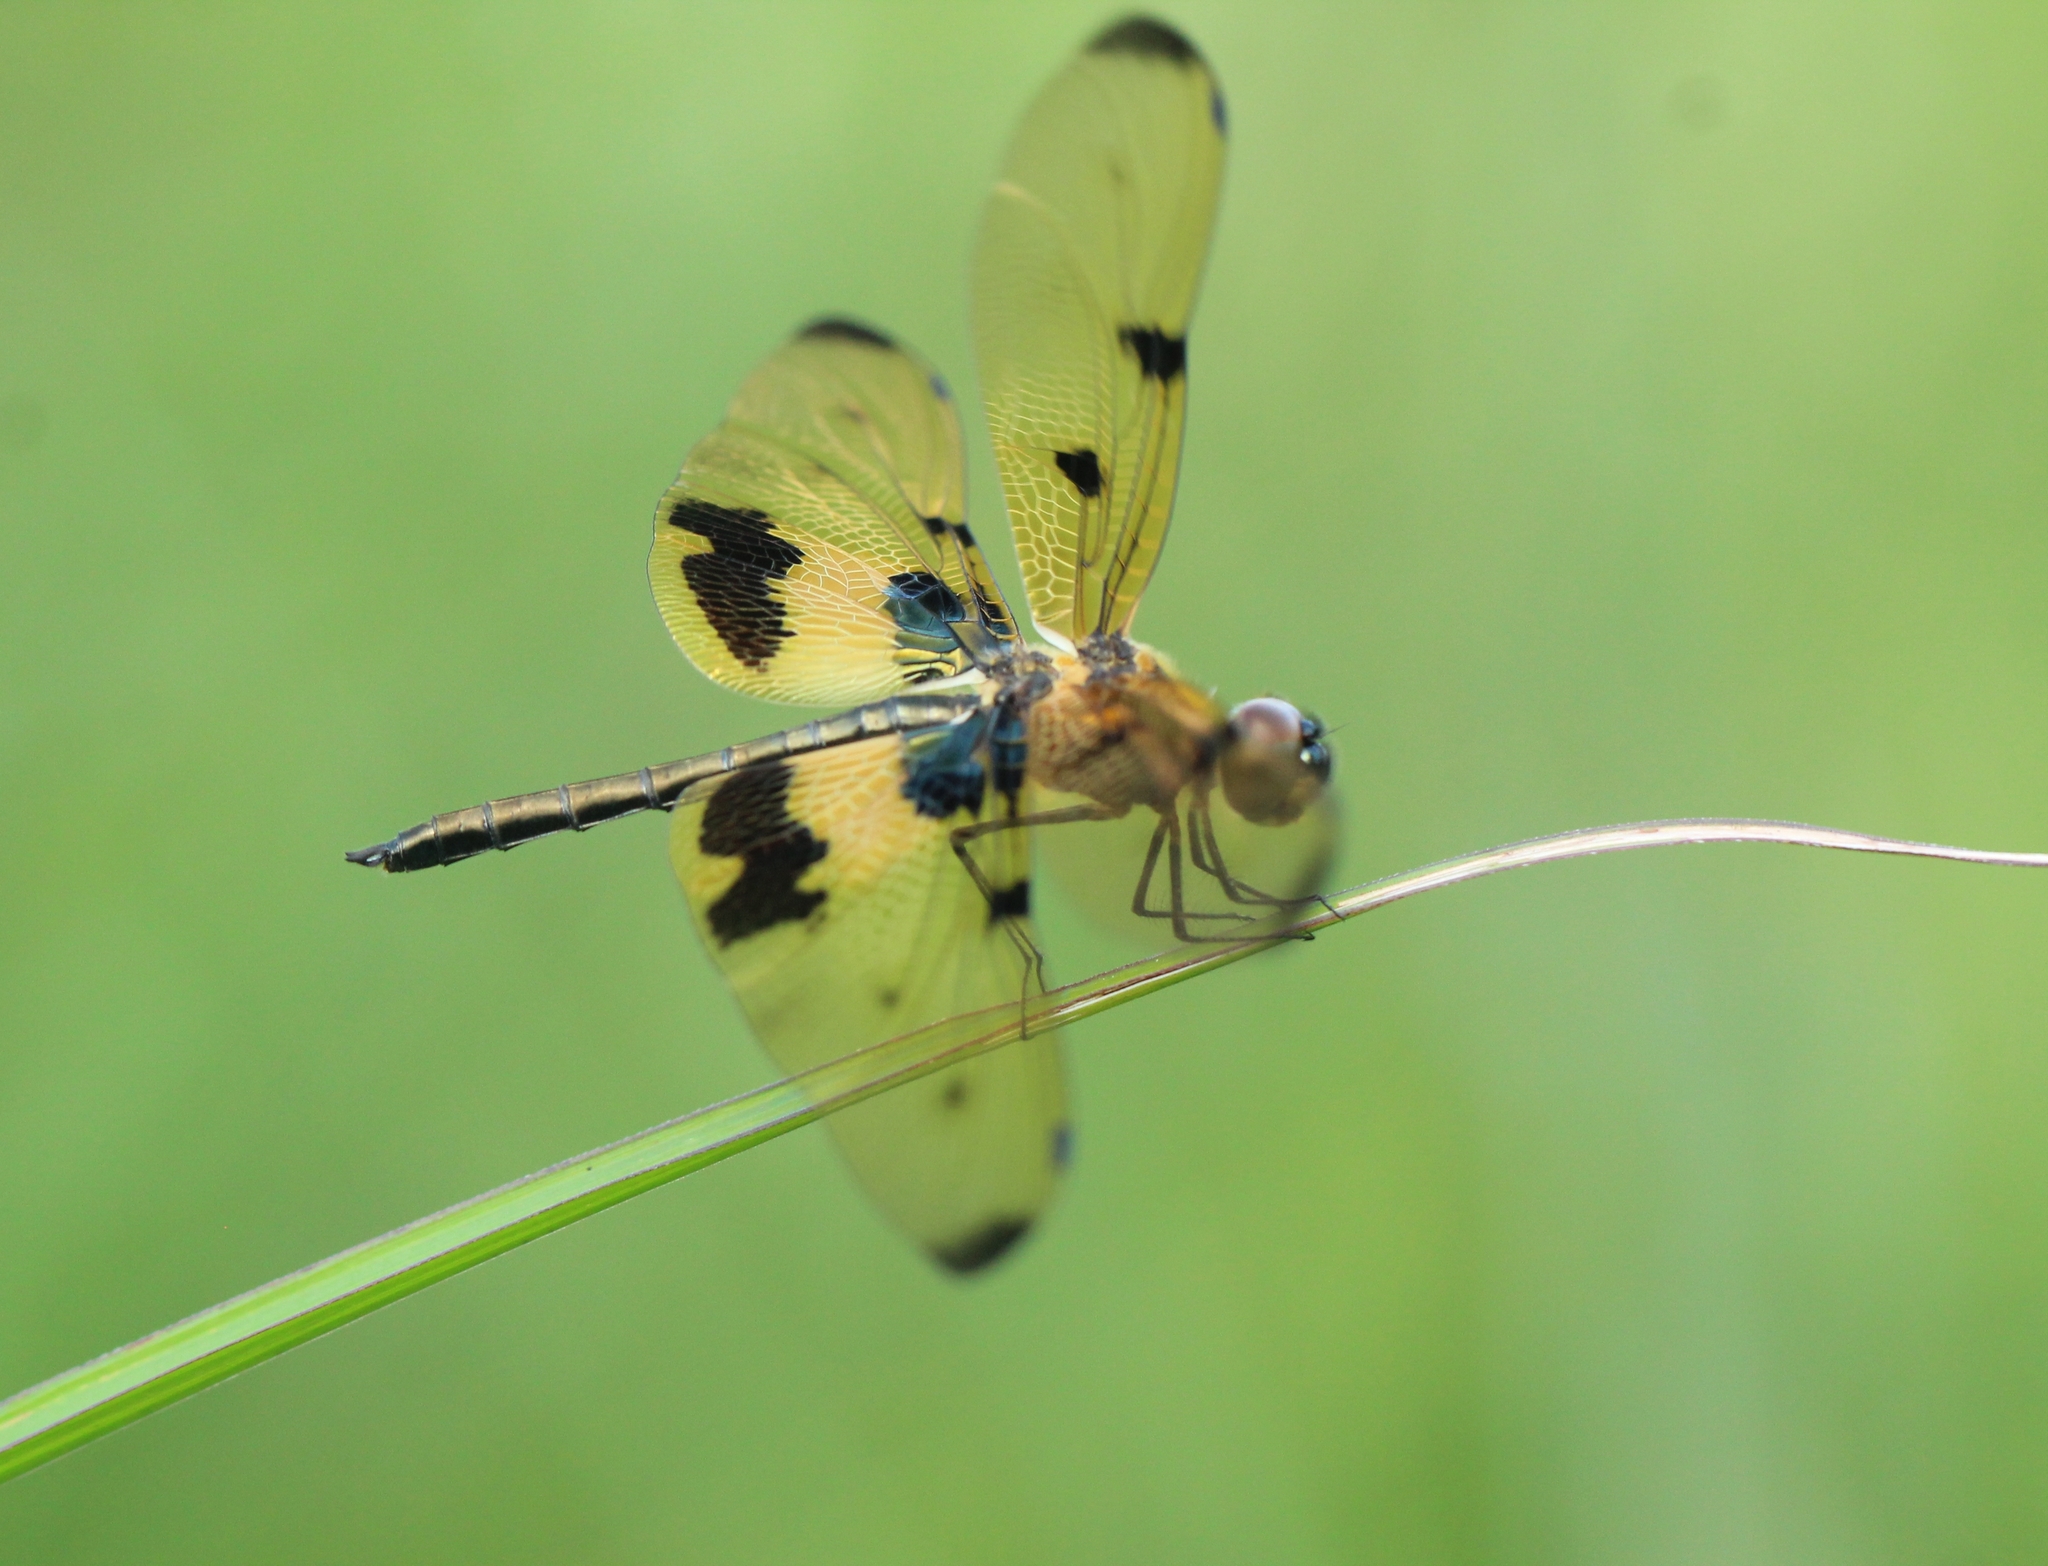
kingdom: Animalia
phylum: Arthropoda
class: Insecta
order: Odonata
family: Libellulidae
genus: Rhyothemis
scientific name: Rhyothemis variegata
